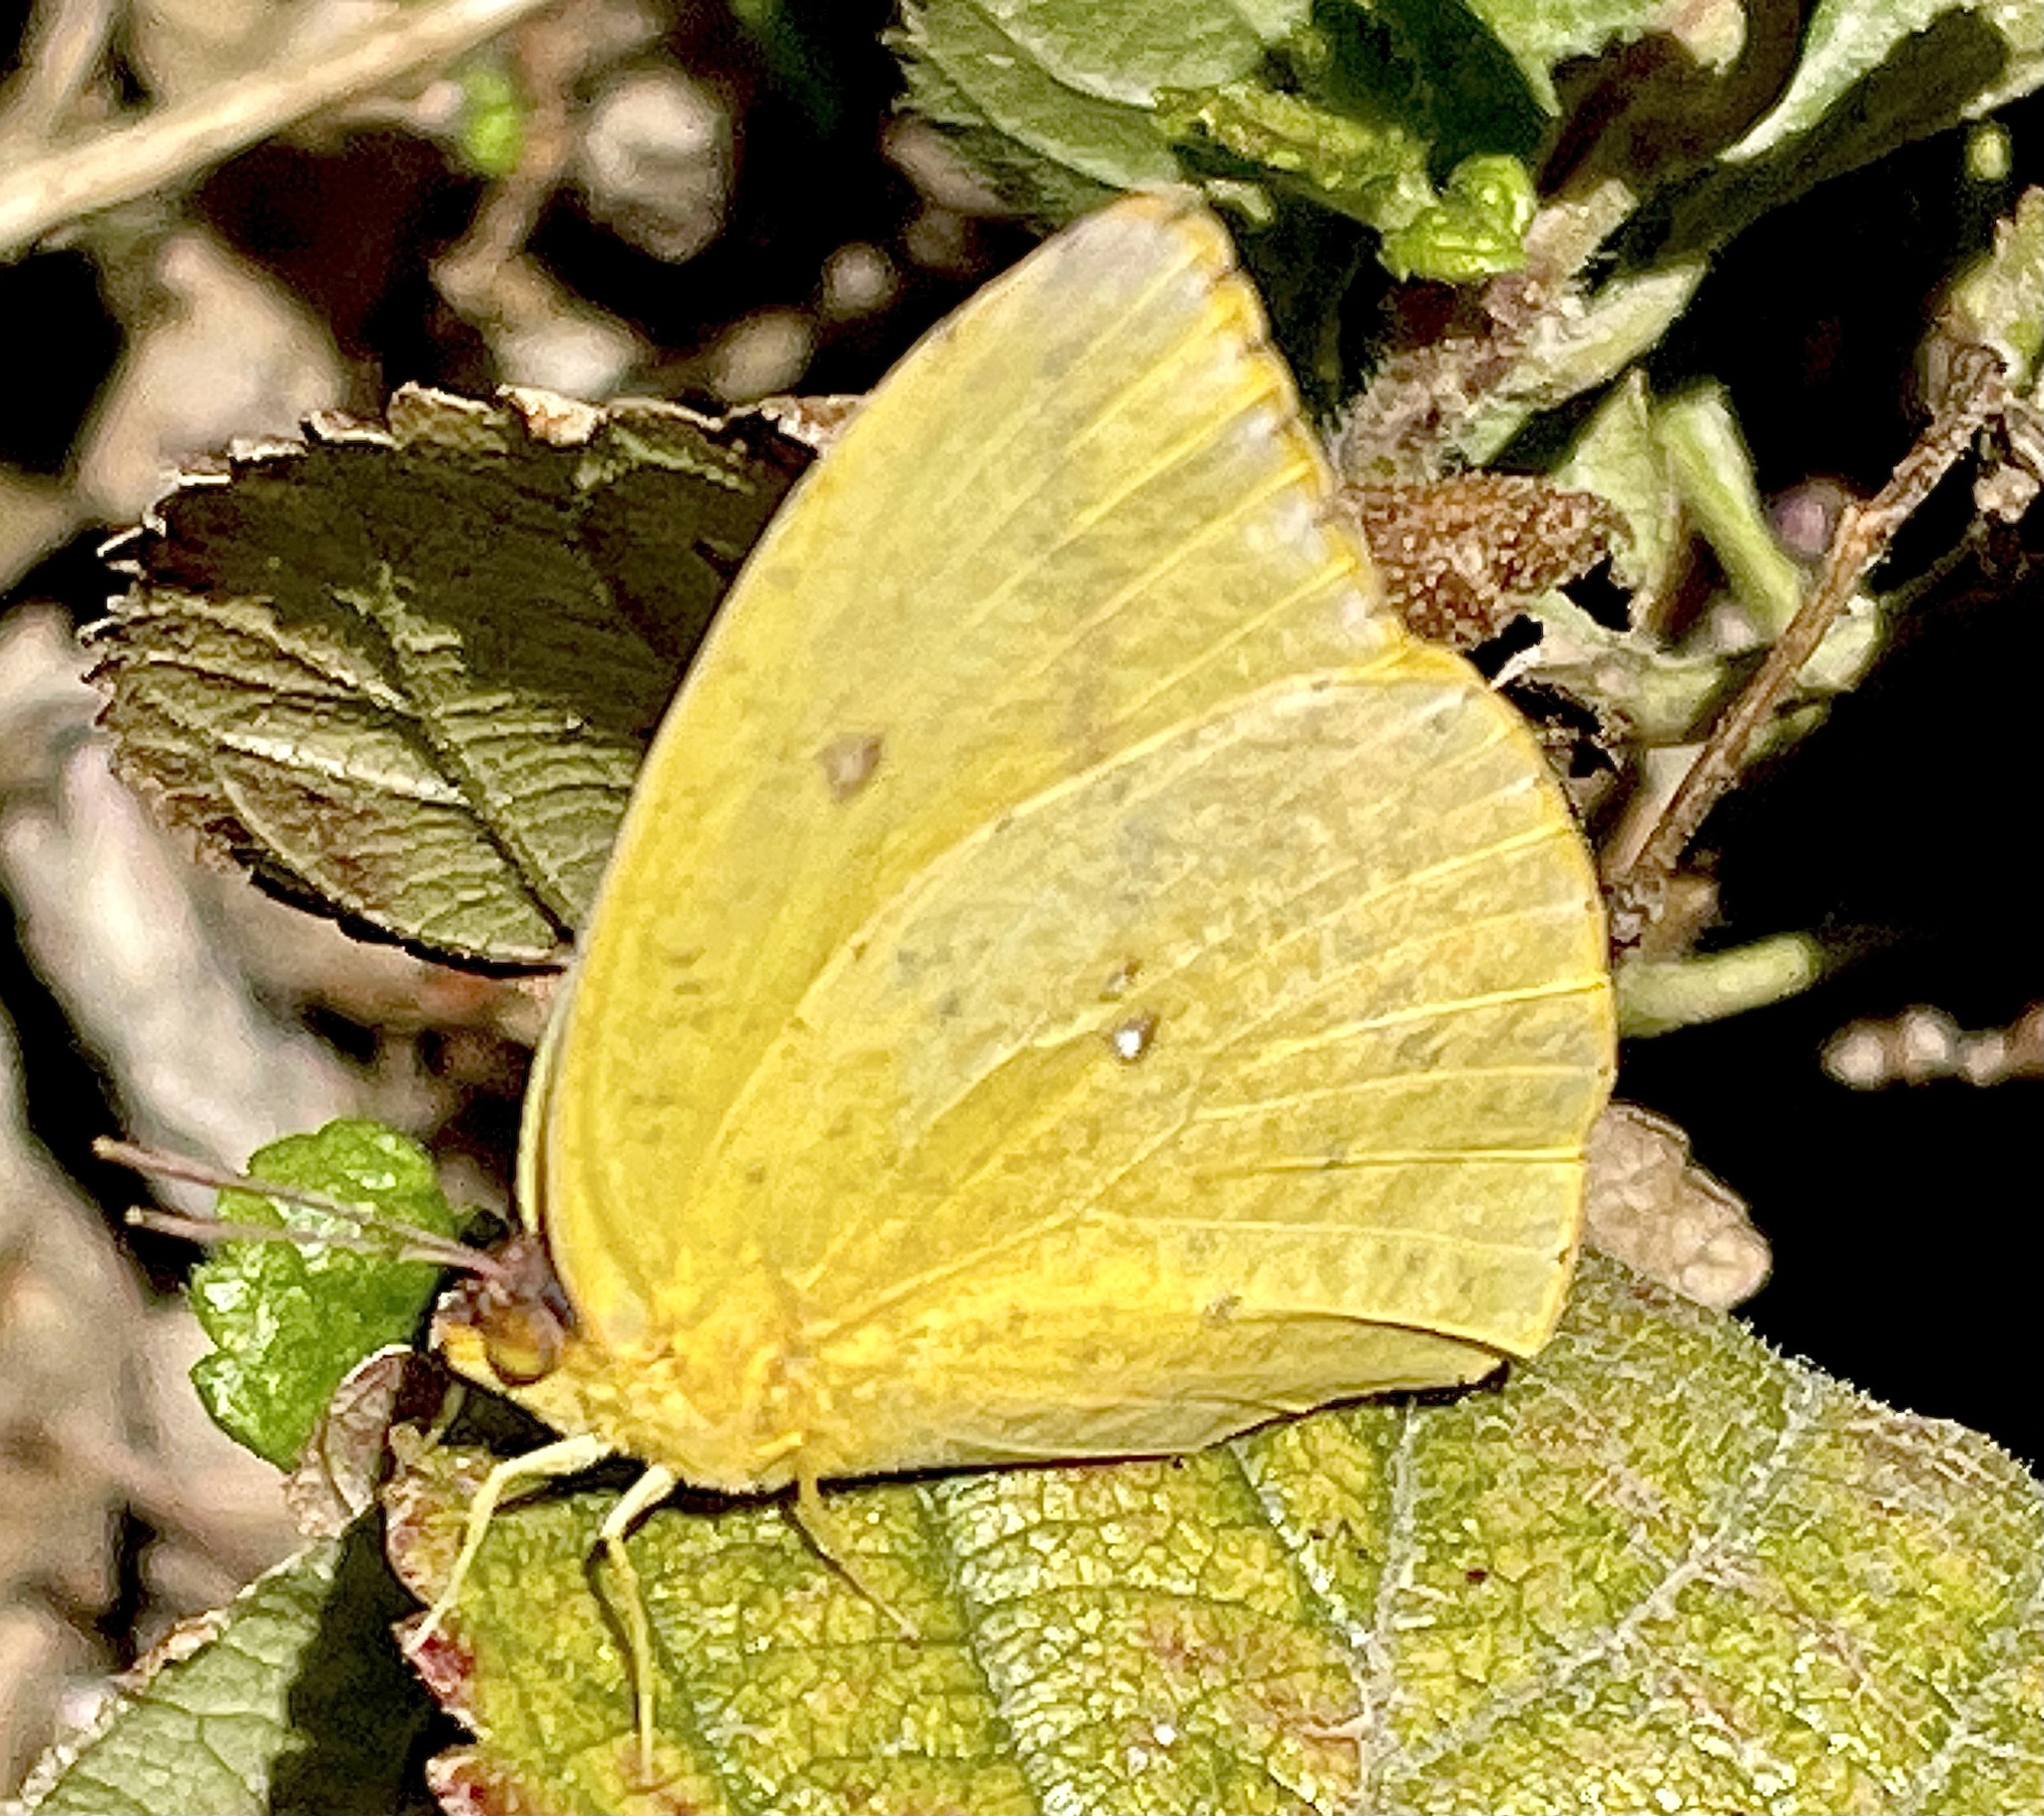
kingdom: Animalia
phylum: Arthropoda
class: Insecta
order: Lepidoptera
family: Pieridae
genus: Phoebis
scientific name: Phoebis agarithe
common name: Large orange sulphur
